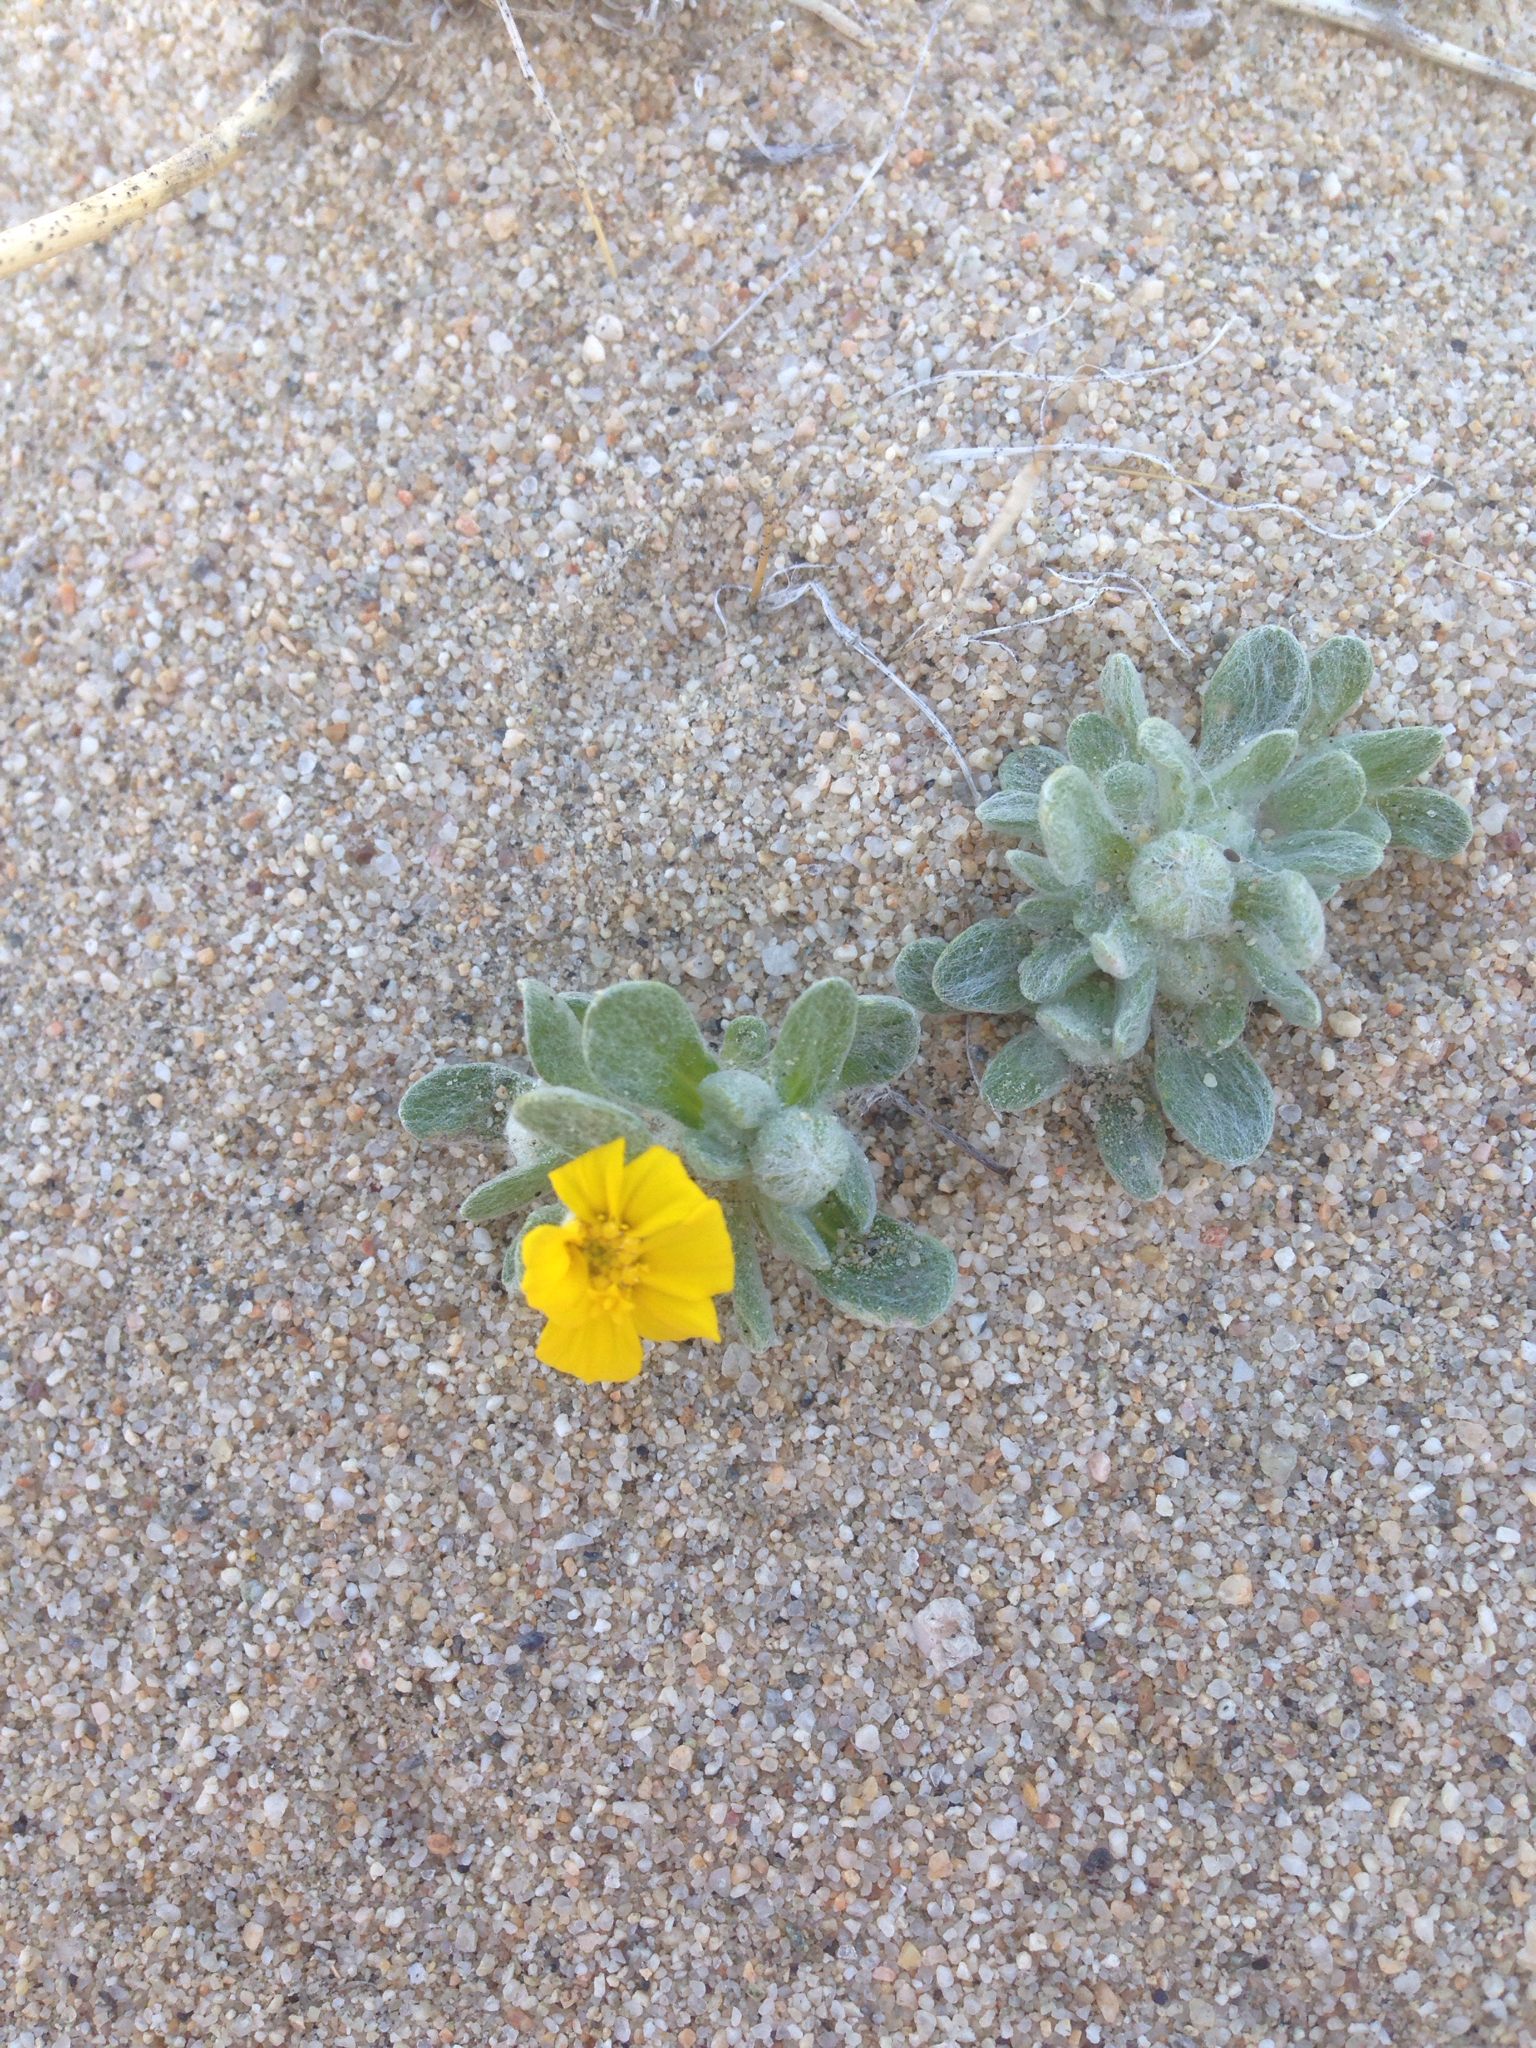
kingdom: Plantae
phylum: Tracheophyta
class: Magnoliopsida
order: Asterales
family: Asteraceae
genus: Eriophyllum
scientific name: Eriophyllum wallacei
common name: Wallace's woolly daisy
